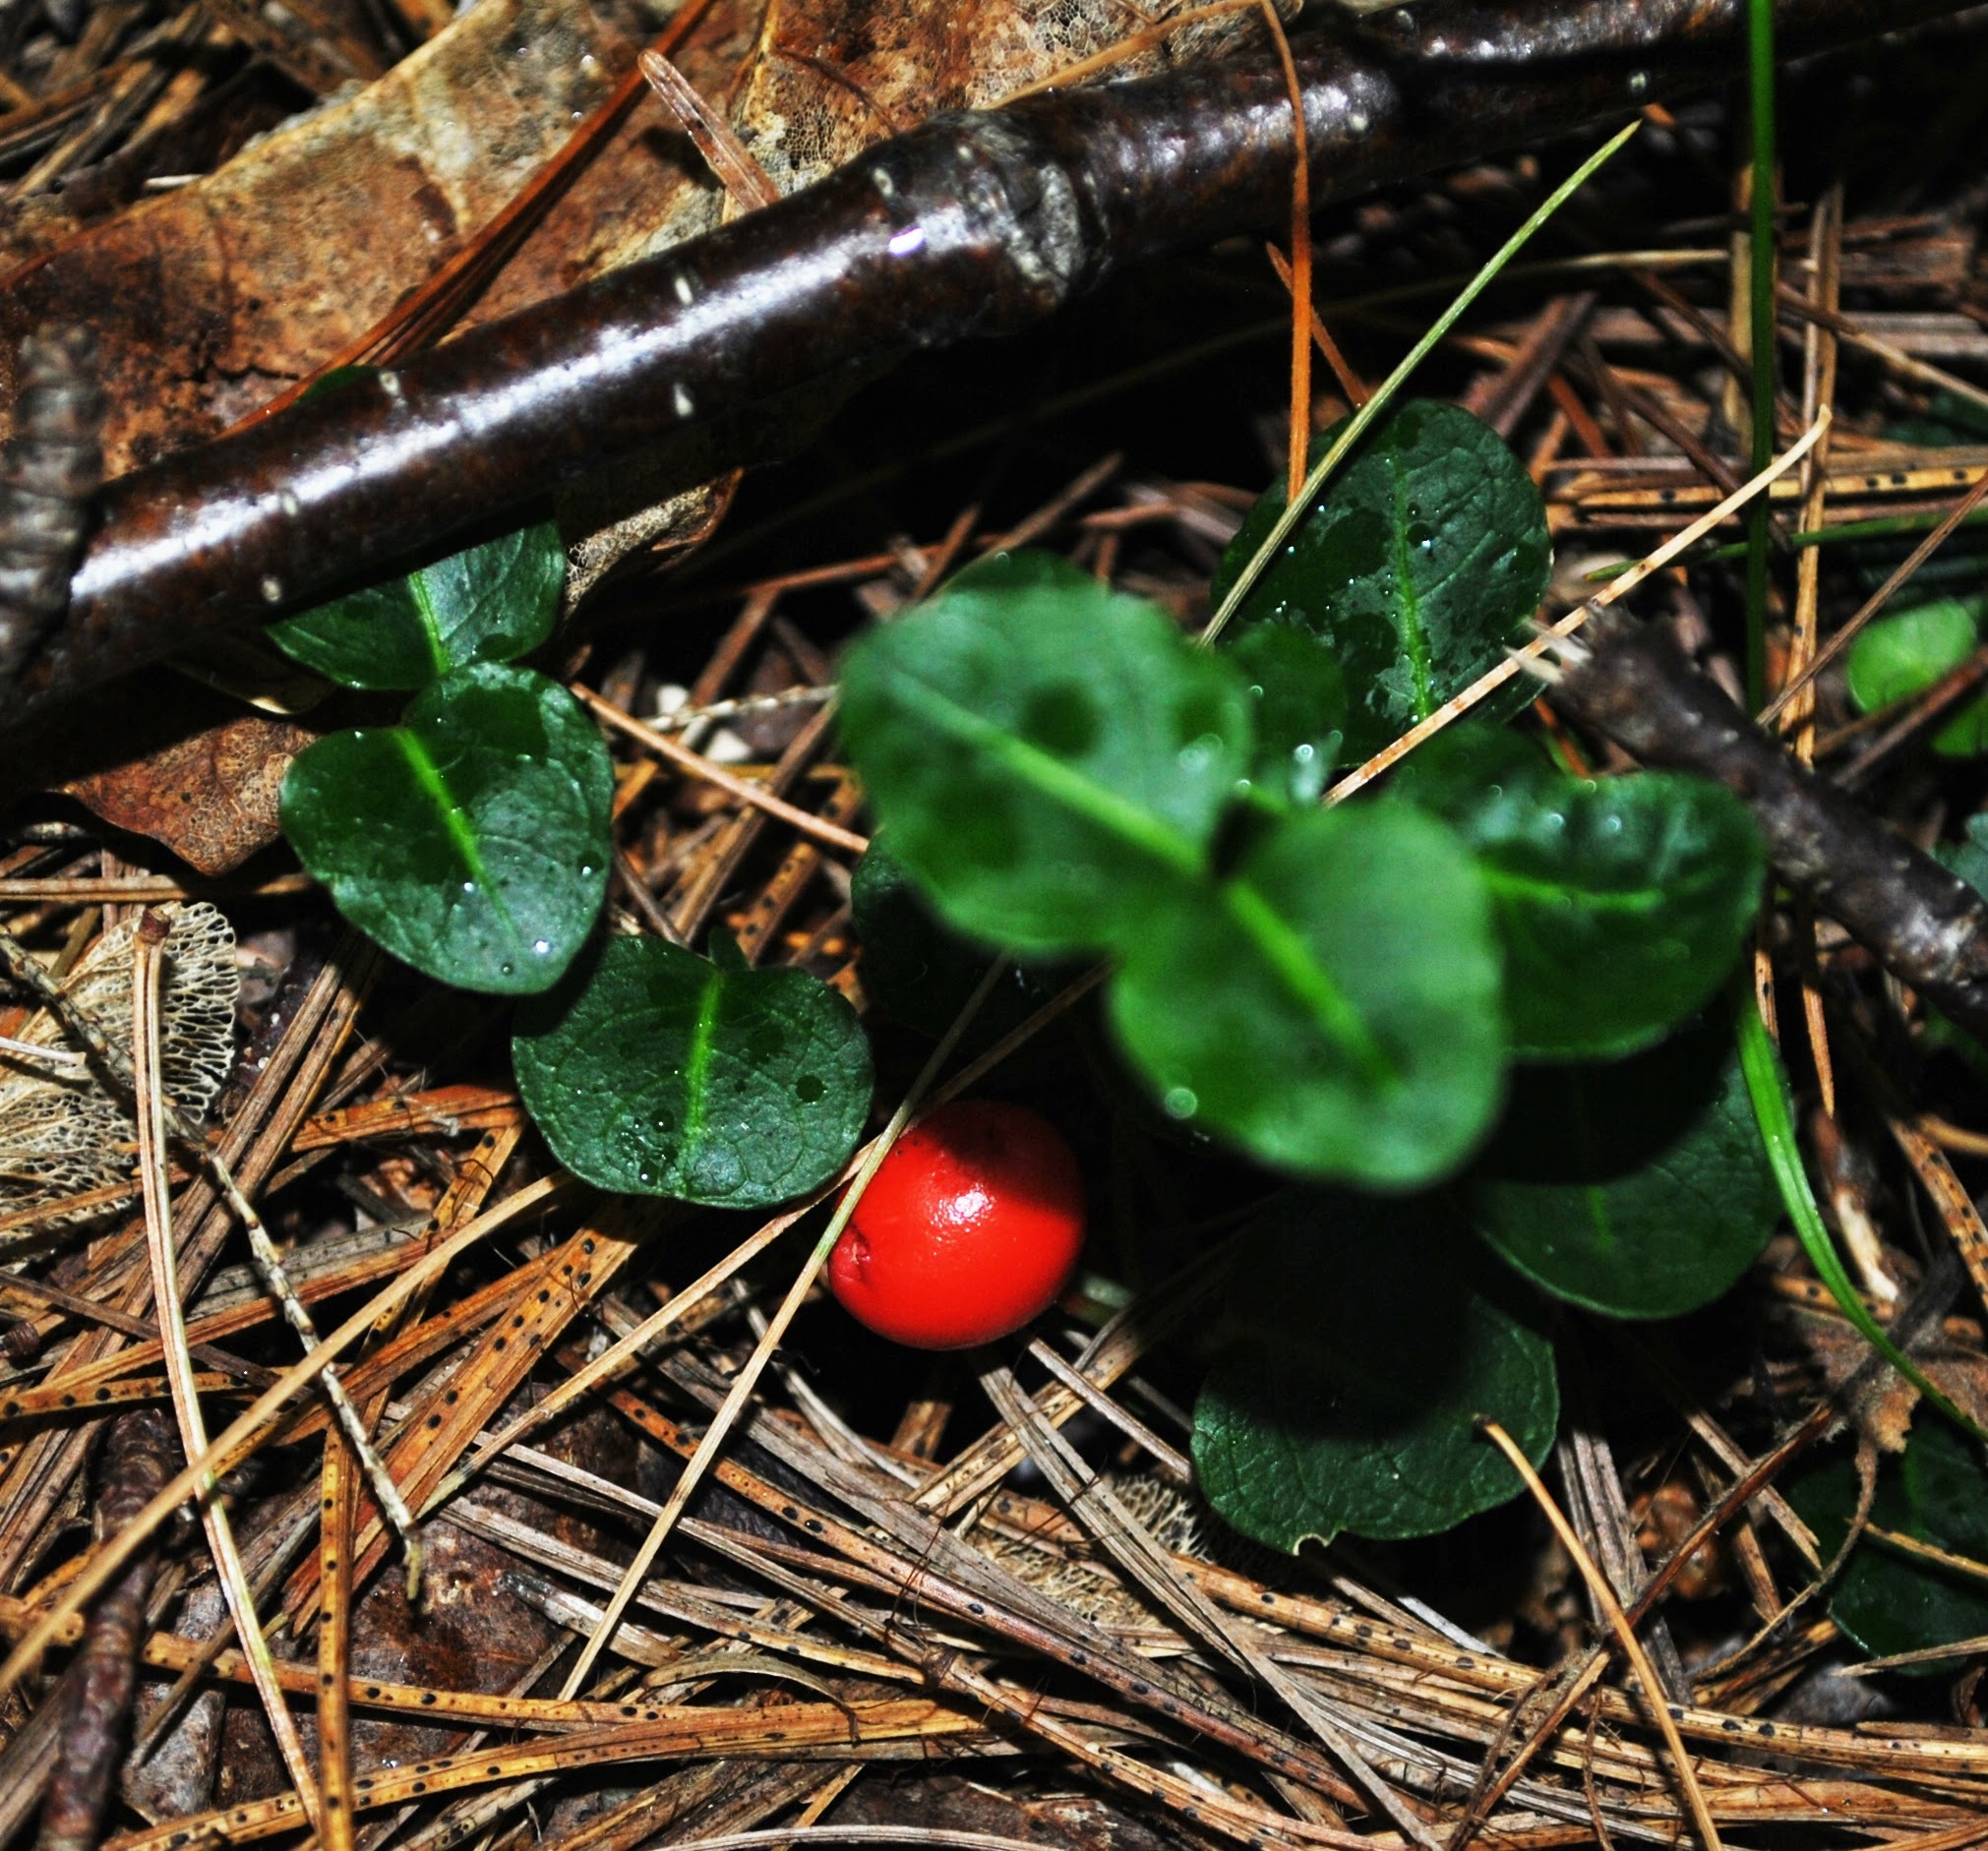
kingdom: Plantae
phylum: Tracheophyta
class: Magnoliopsida
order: Gentianales
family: Rubiaceae
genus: Mitchella
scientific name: Mitchella repens
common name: Partridge-berry
